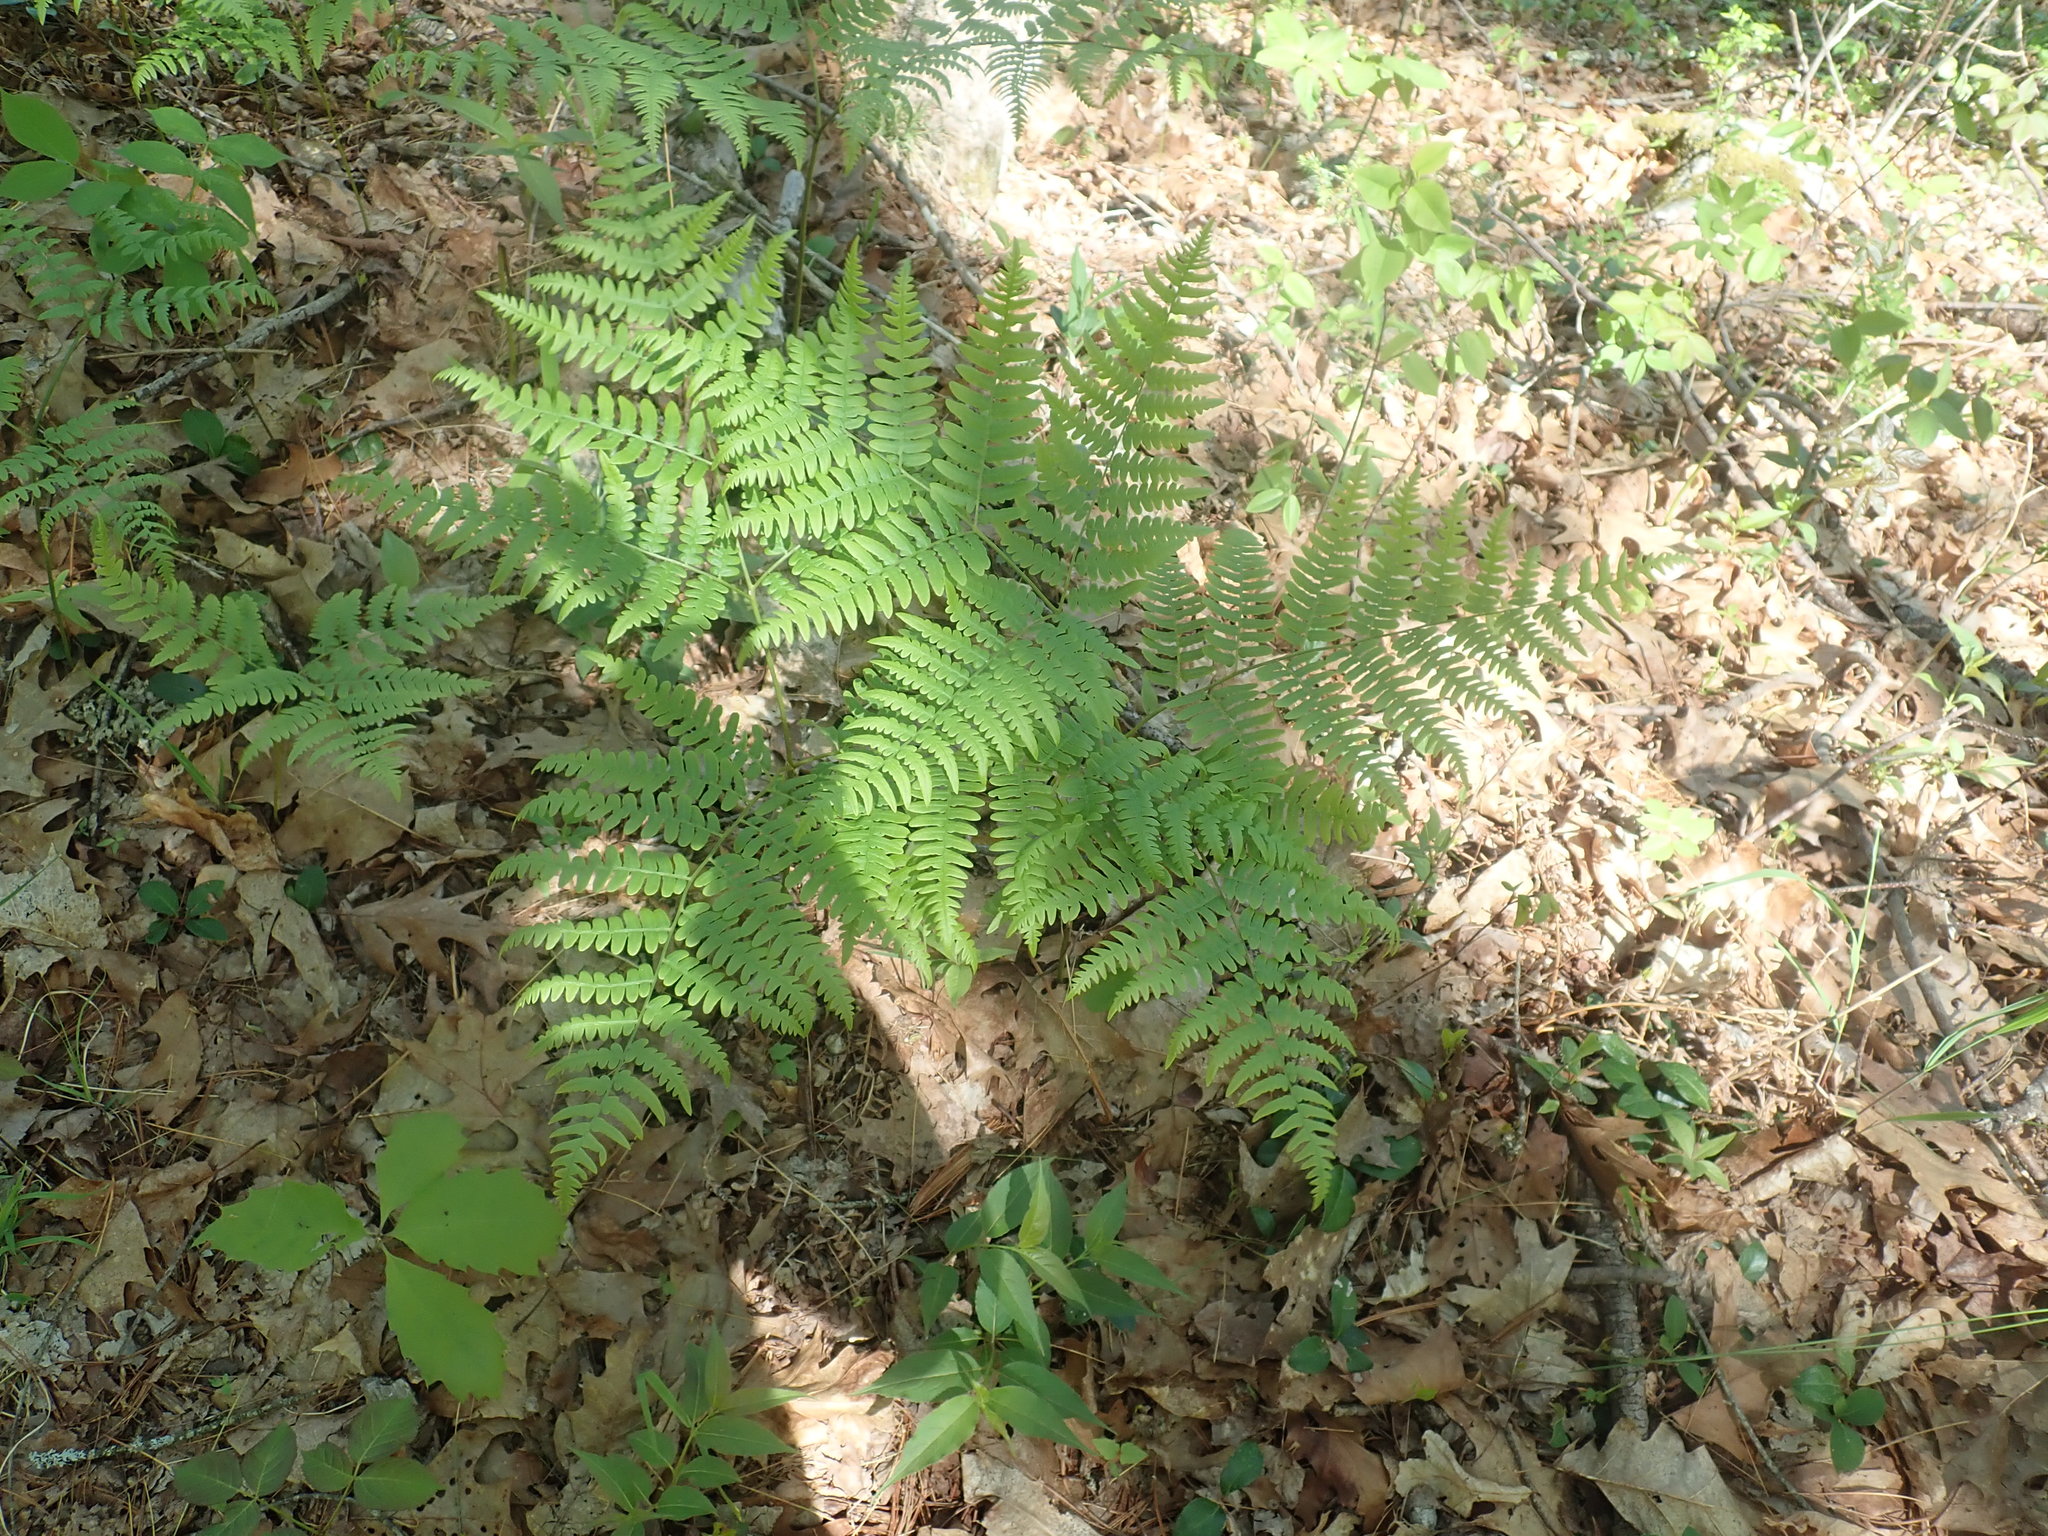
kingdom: Plantae
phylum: Tracheophyta
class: Polypodiopsida
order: Polypodiales
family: Dennstaedtiaceae
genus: Pteridium
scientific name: Pteridium aquilinum
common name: Bracken
